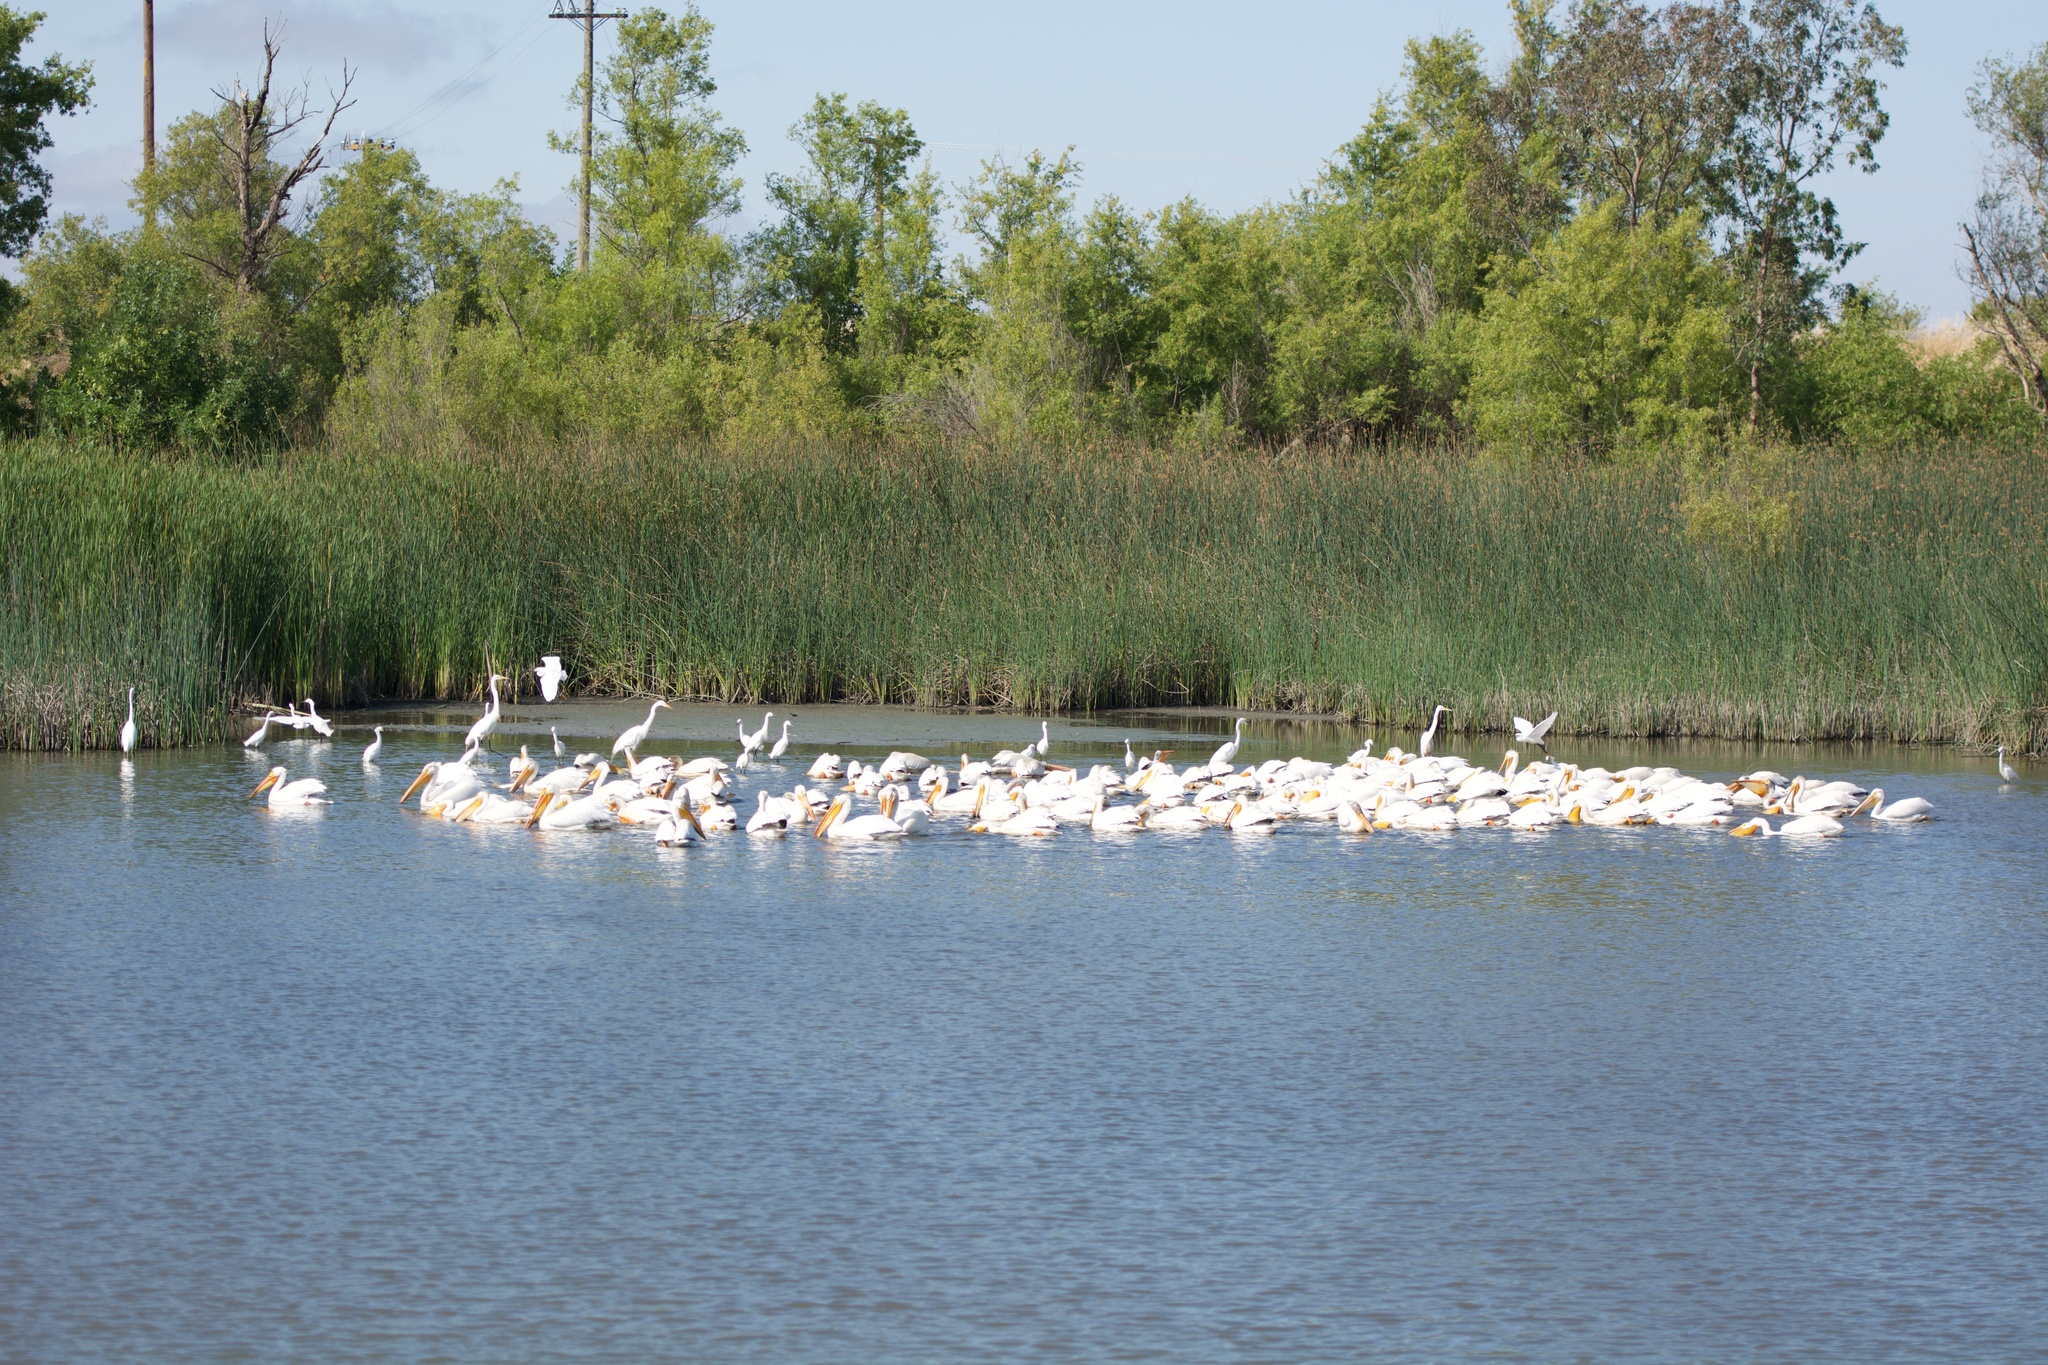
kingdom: Animalia
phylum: Chordata
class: Aves
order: Pelecaniformes
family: Pelecanidae
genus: Pelecanus
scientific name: Pelecanus erythrorhynchos
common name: American white pelican
